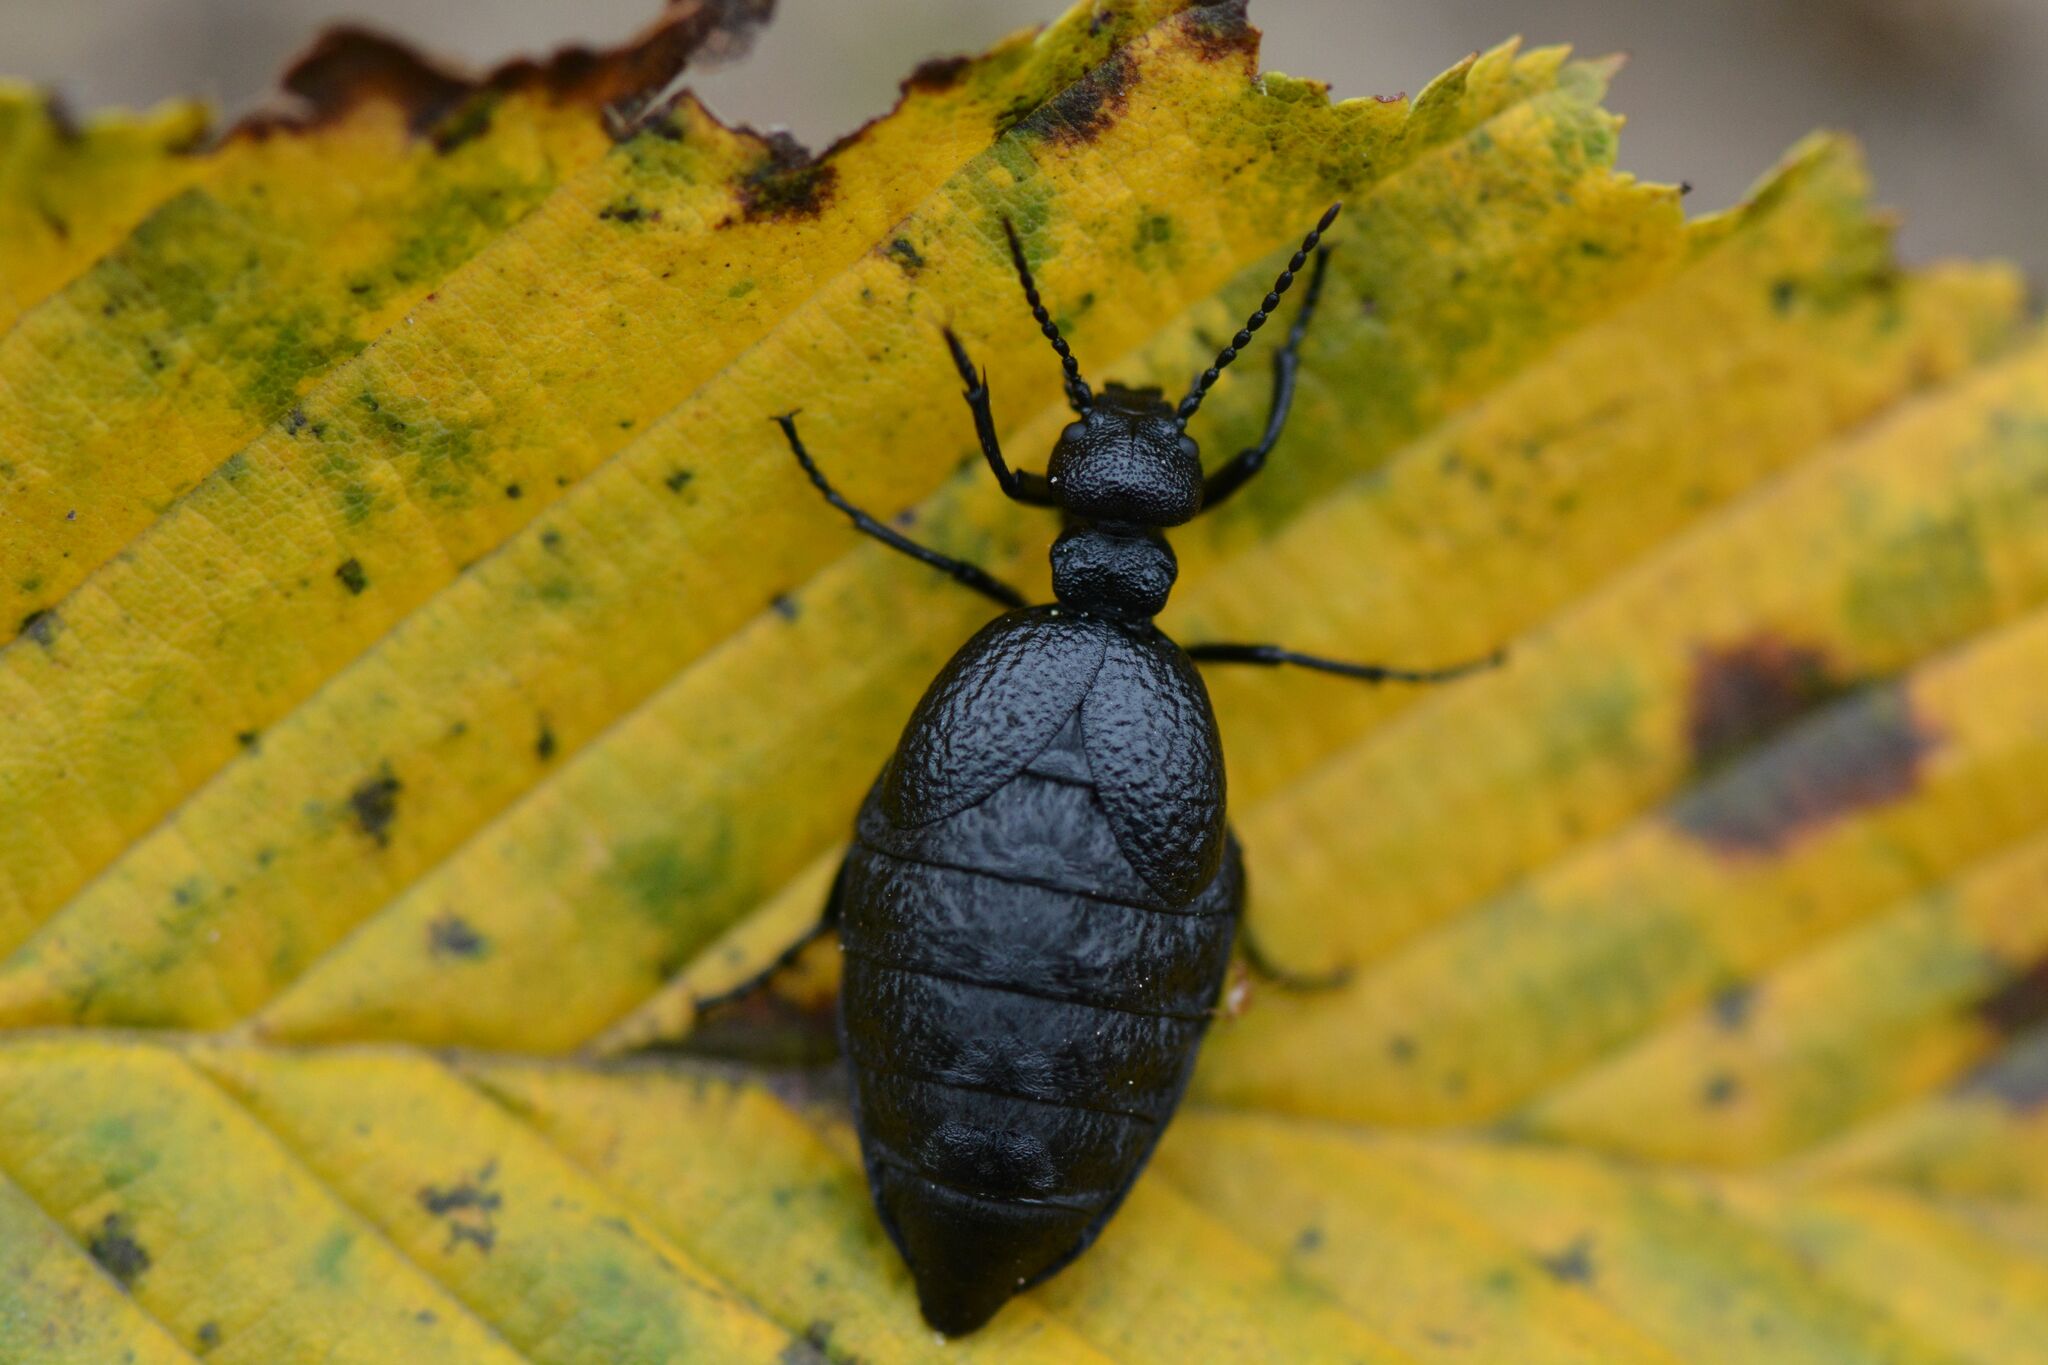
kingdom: Animalia
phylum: Arthropoda
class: Insecta
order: Coleoptera
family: Meloidae
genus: Meloe
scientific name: Meloe rugosus
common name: Rugged oil-beetle
